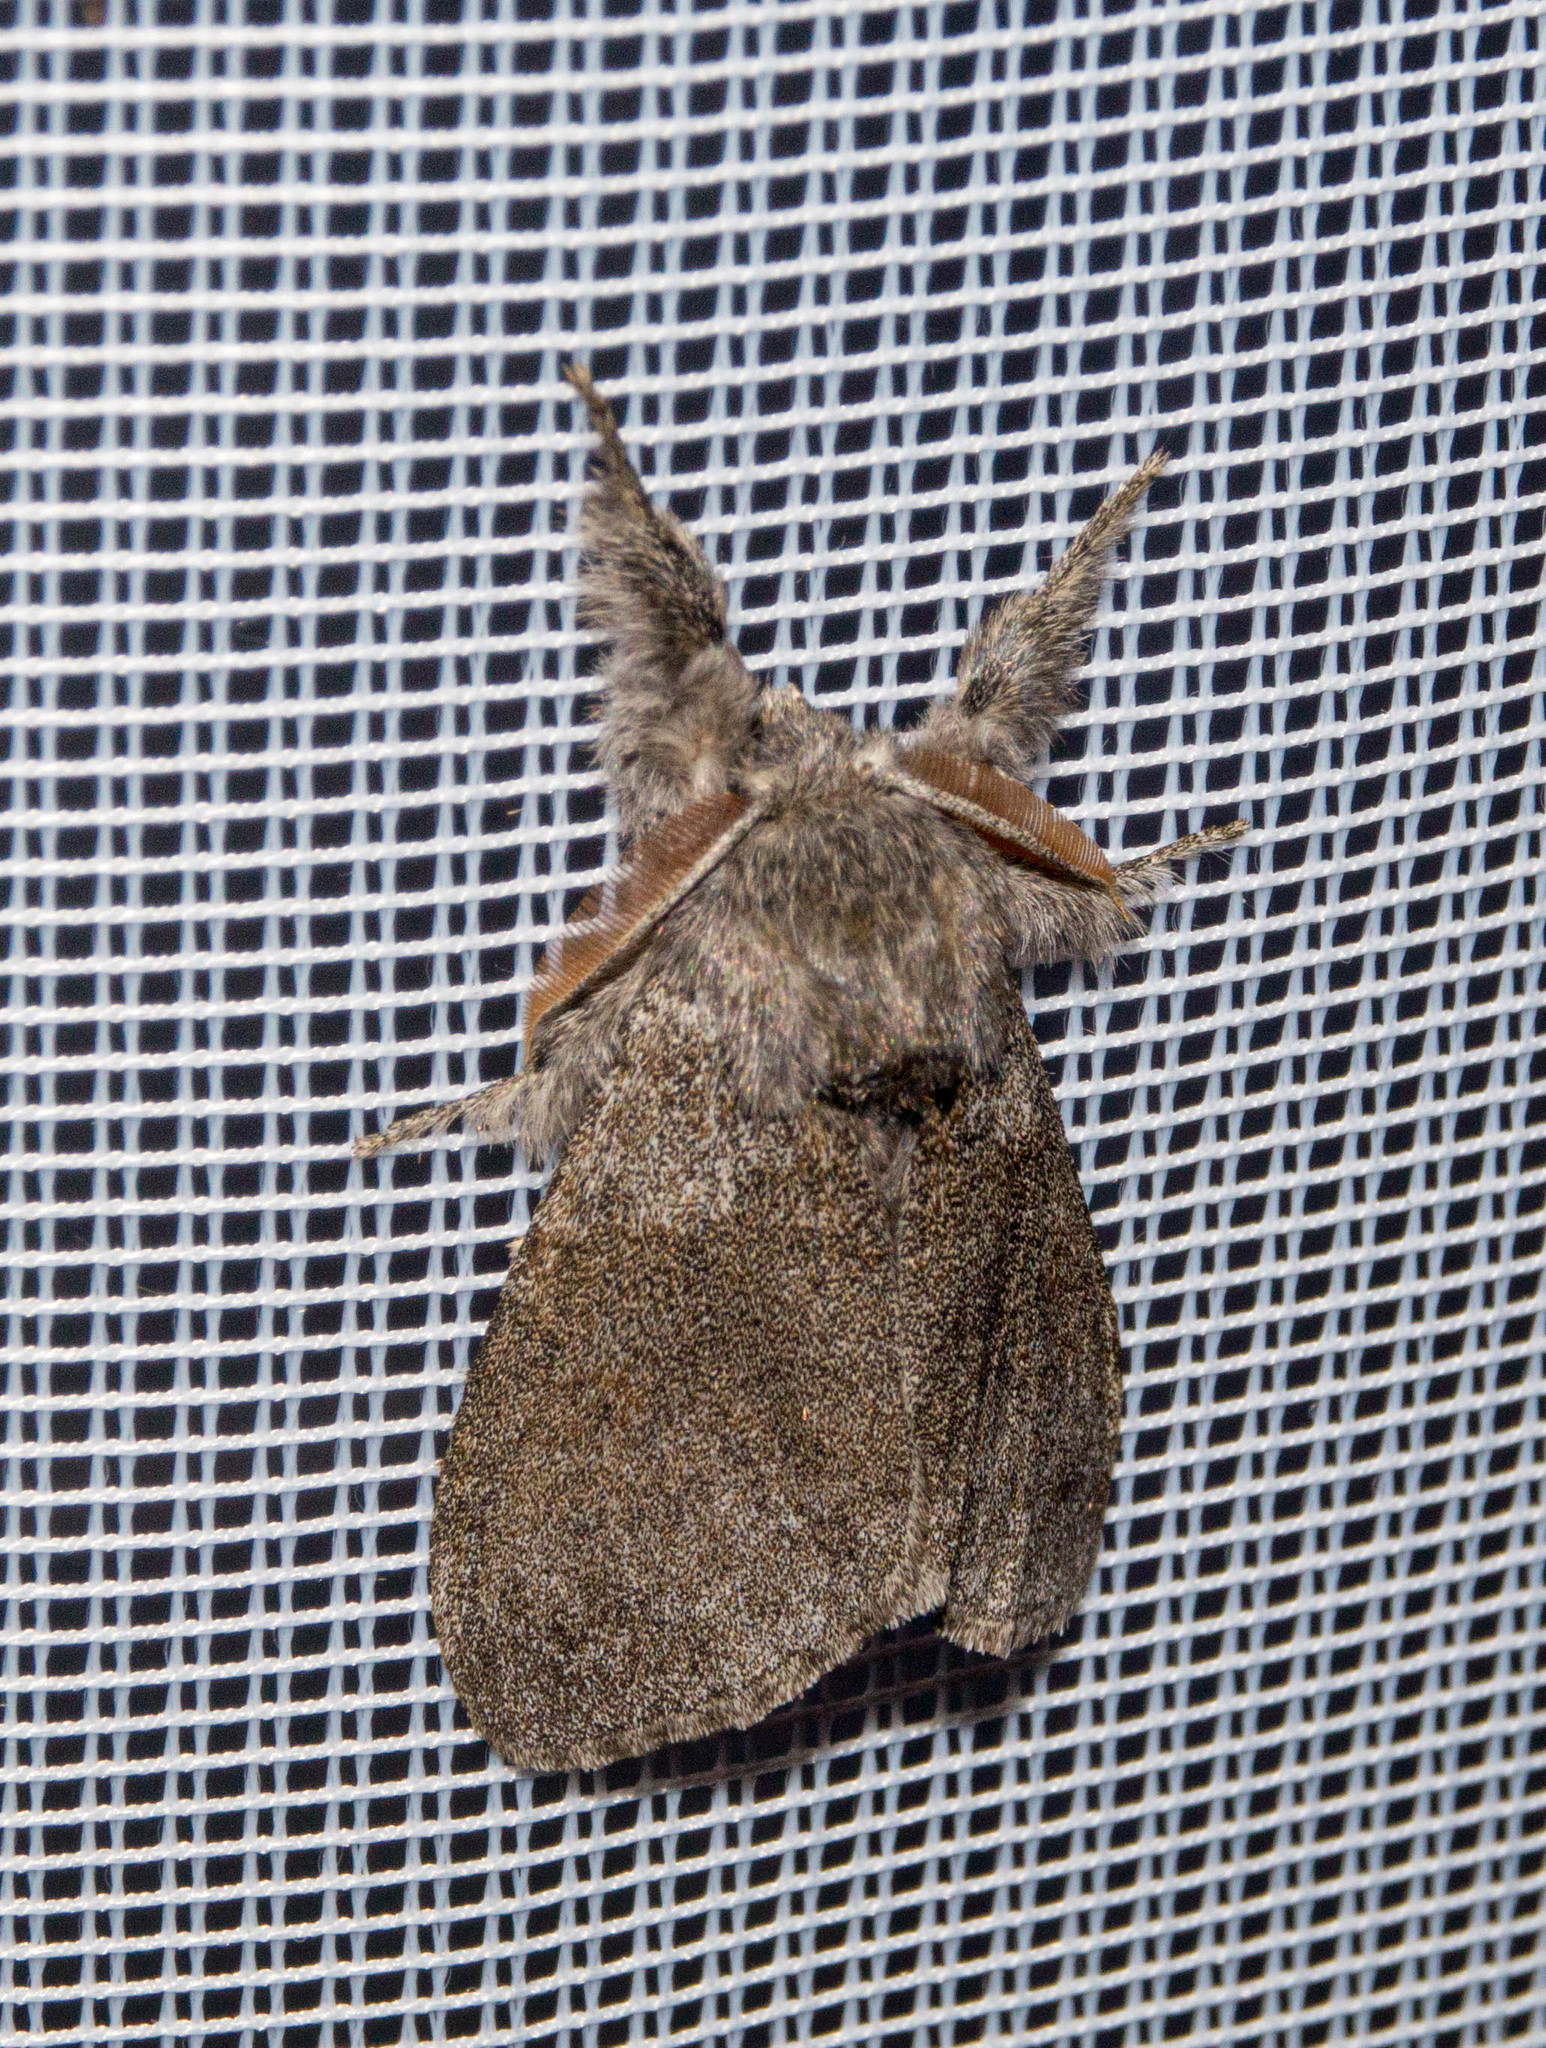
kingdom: Animalia
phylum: Arthropoda
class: Insecta
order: Lepidoptera
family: Erebidae
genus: Calliteara
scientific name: Calliteara pudibunda
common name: Pale tussock
